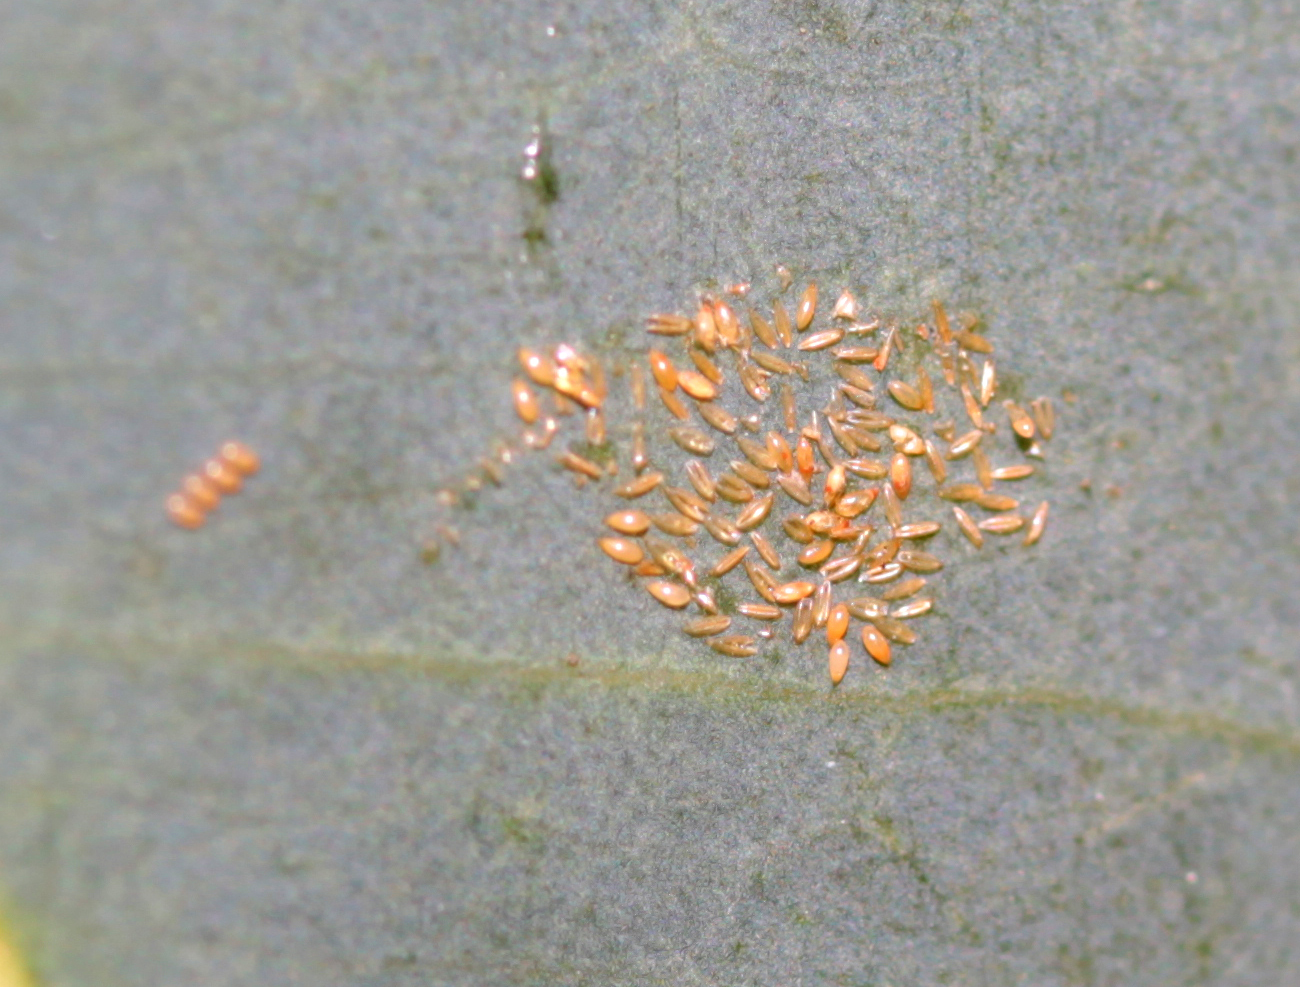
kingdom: Animalia
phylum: Arthropoda
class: Insecta
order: Hemiptera
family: Aphalaridae
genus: Glycaspis
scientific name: Glycaspis brimblecombei
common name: Red gum lerp psyllid
